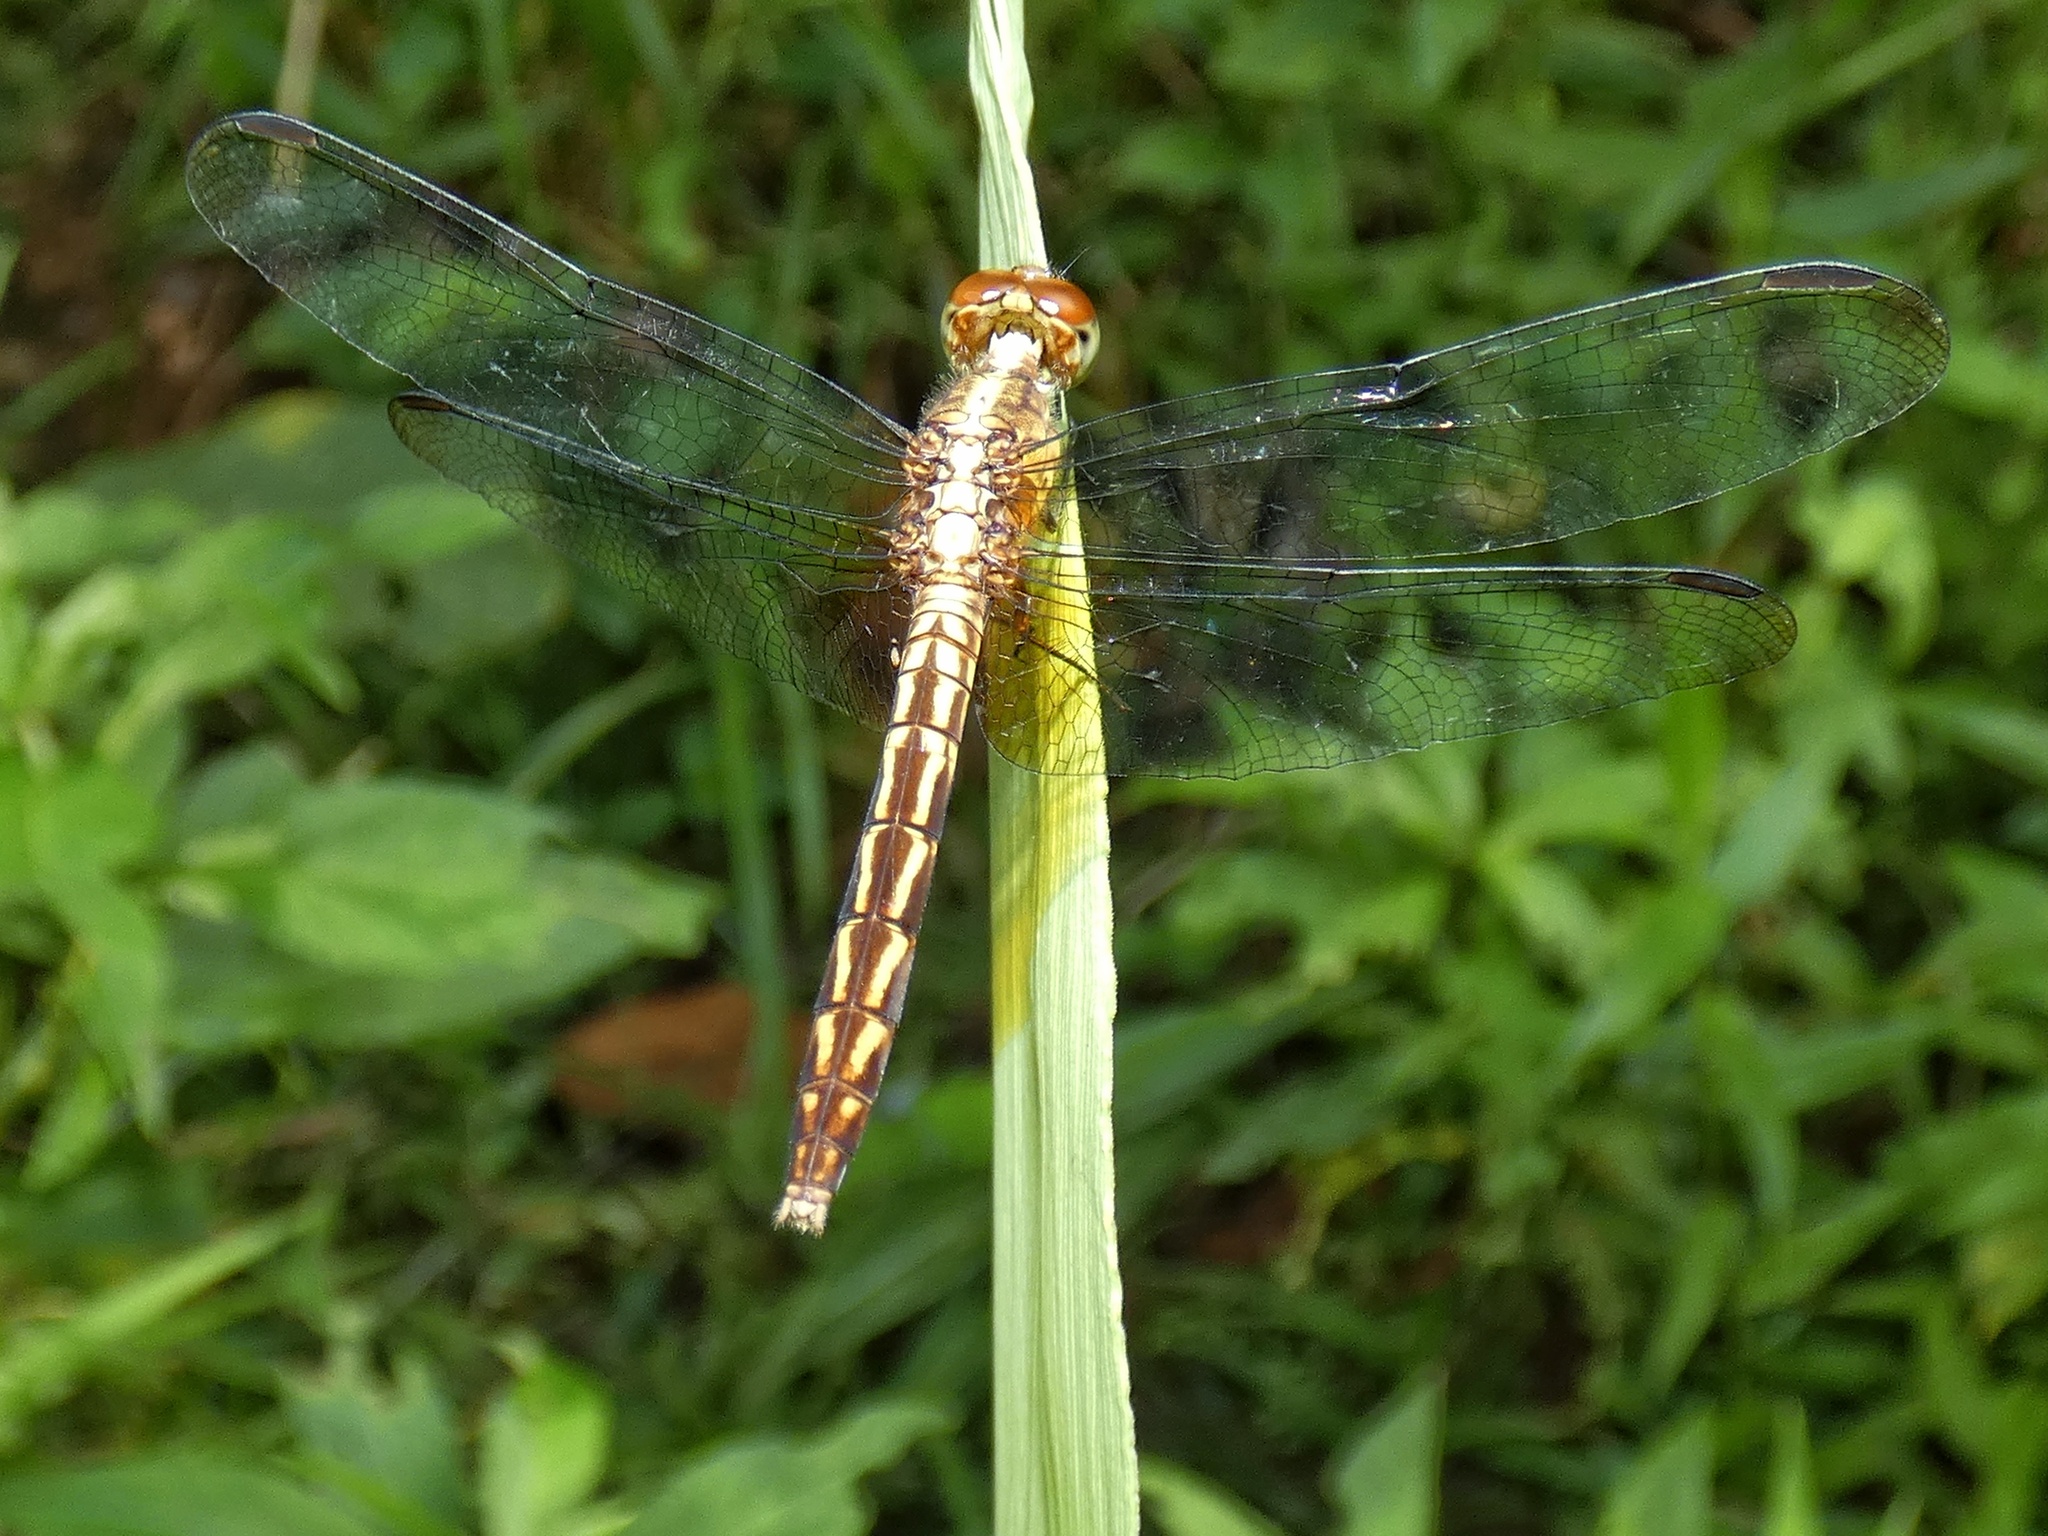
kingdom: Animalia
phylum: Arthropoda
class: Insecta
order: Odonata
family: Libellulidae
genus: Erythrodiplax
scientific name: Erythrodiplax lativittata
